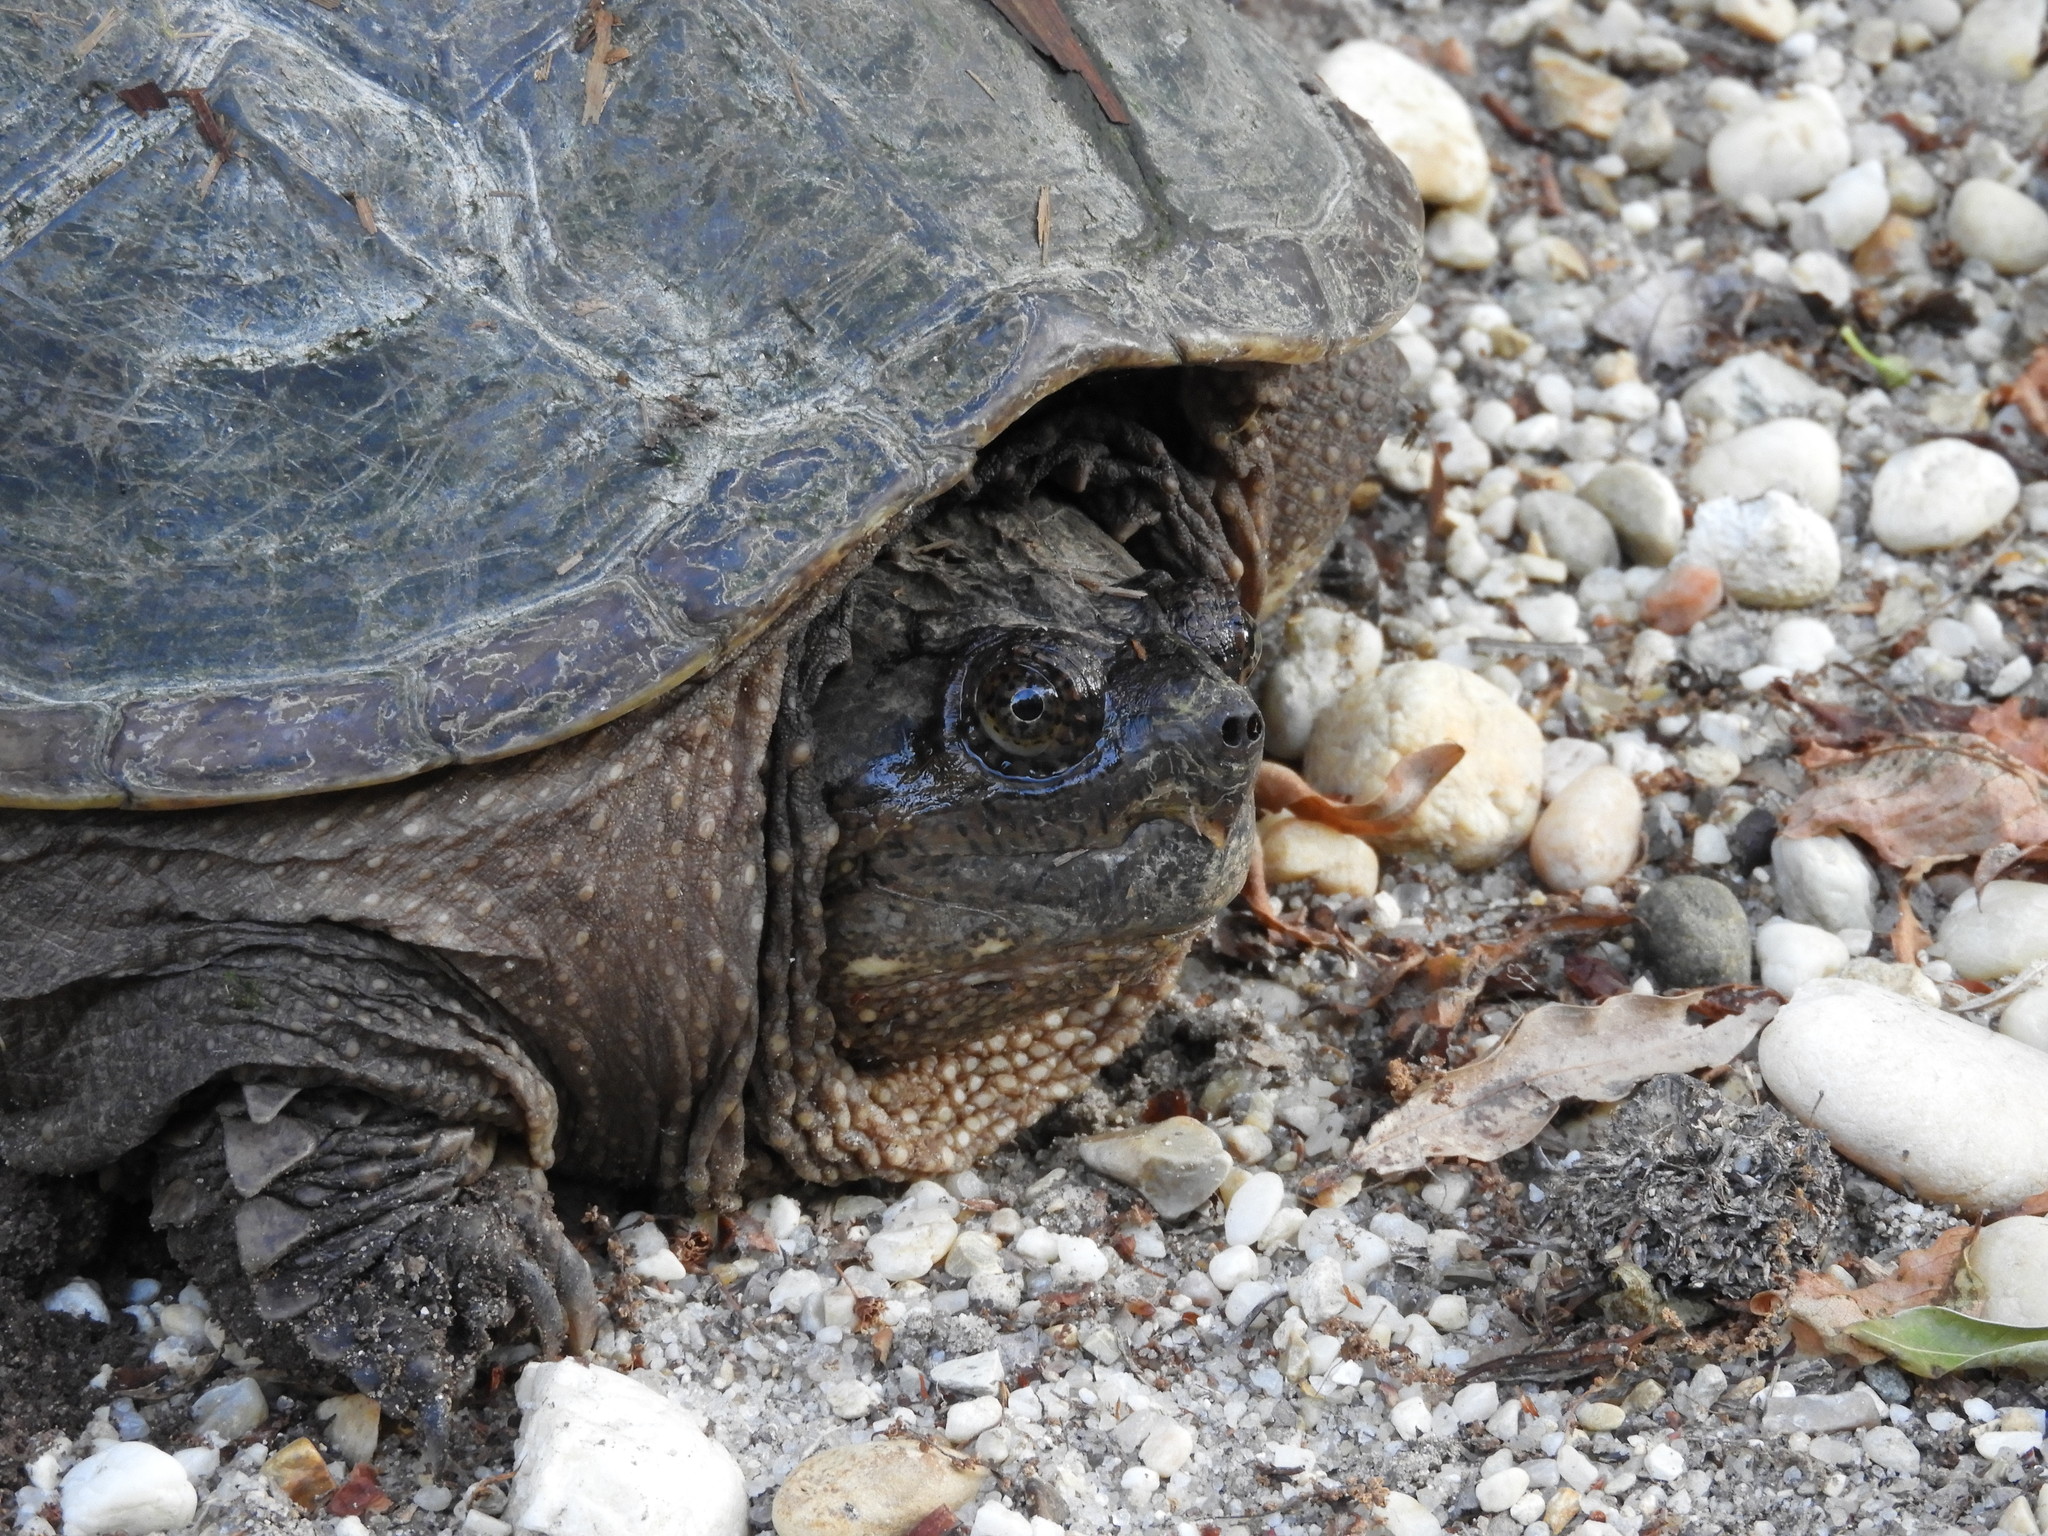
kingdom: Animalia
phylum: Chordata
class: Testudines
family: Chelydridae
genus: Chelydra
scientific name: Chelydra serpentina
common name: Common snapping turtle
